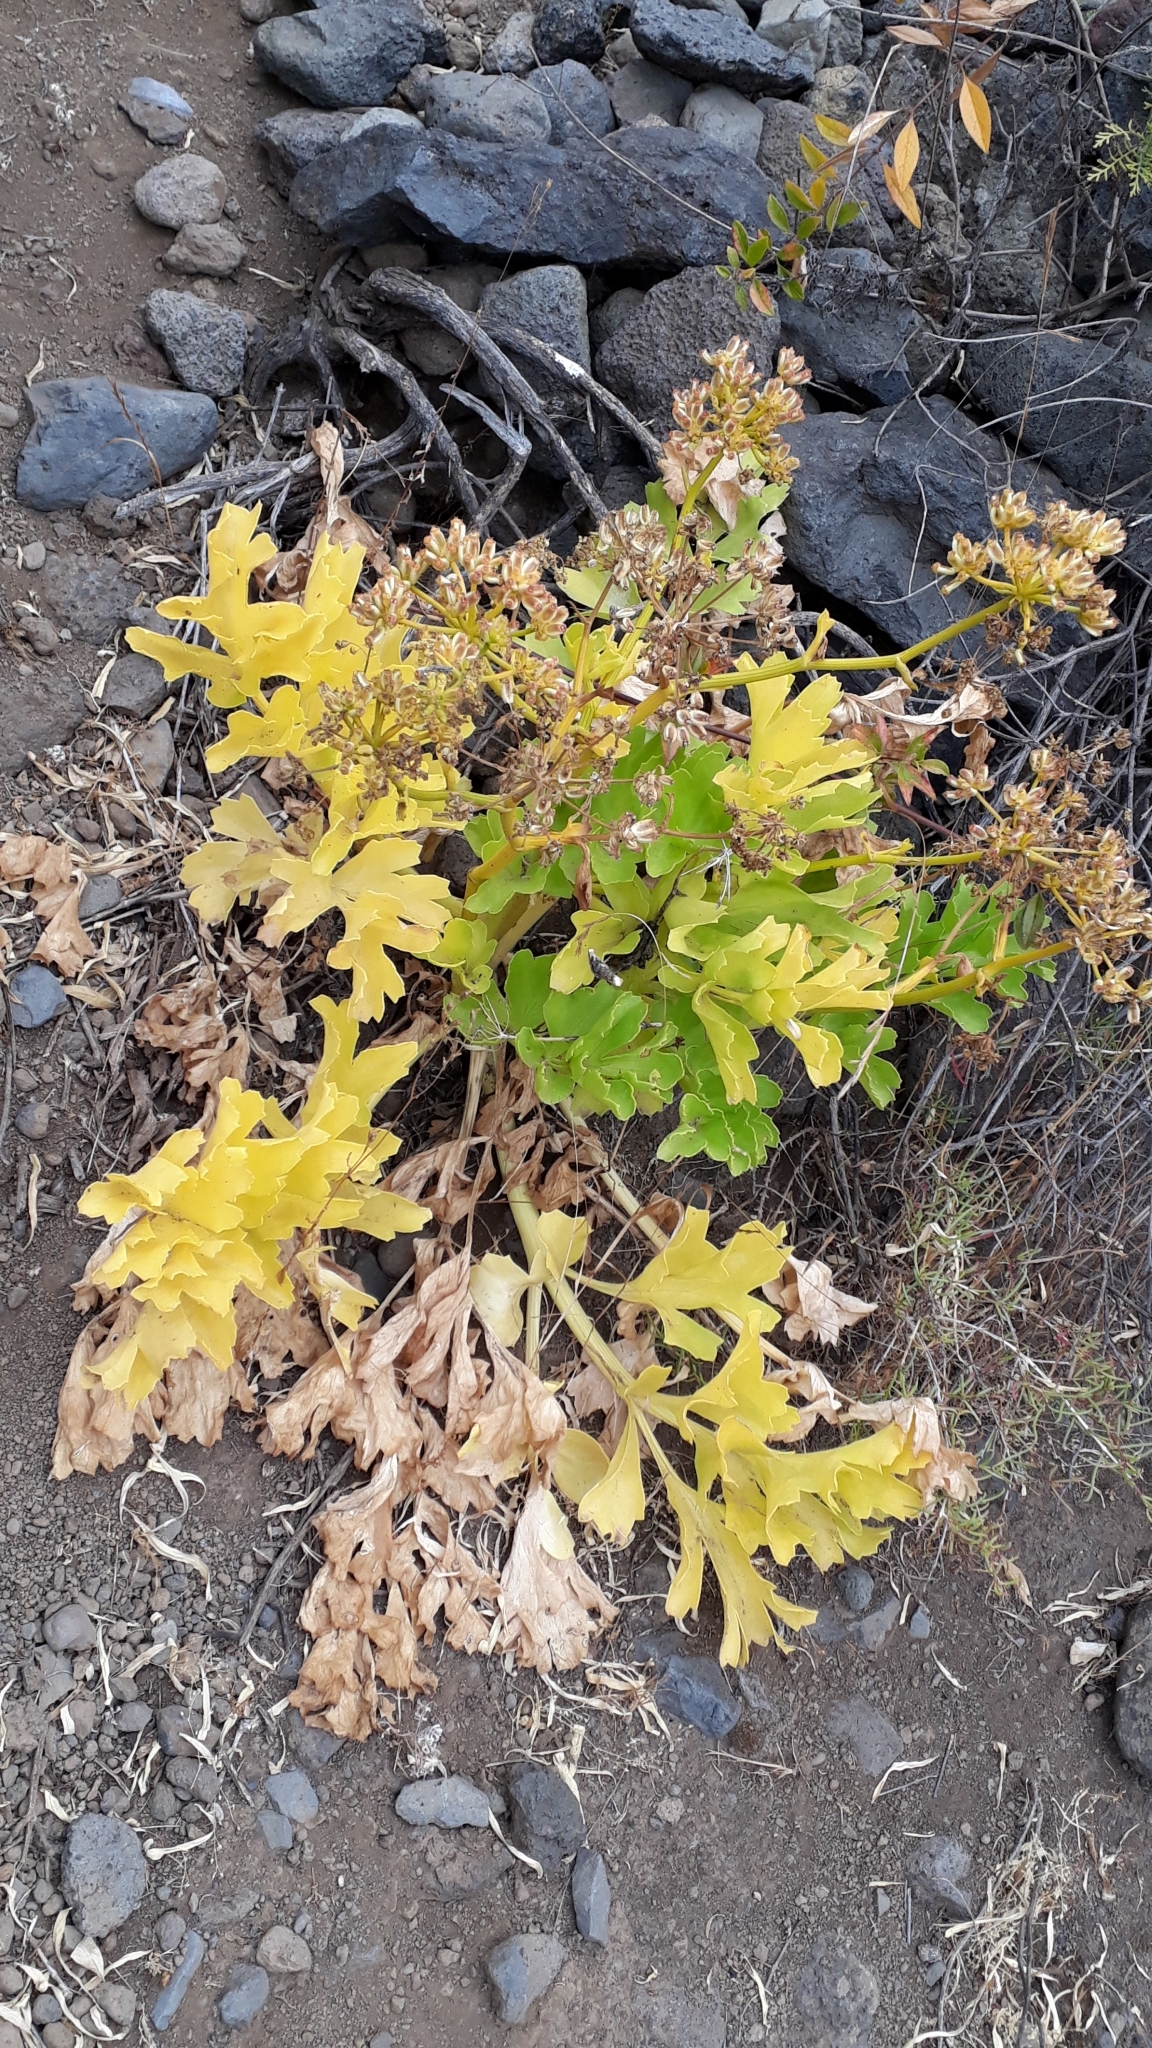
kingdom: Plantae
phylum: Tracheophyta
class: Magnoliopsida
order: Apiales
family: Apiaceae
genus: Astydamia
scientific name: Astydamia latifolia
